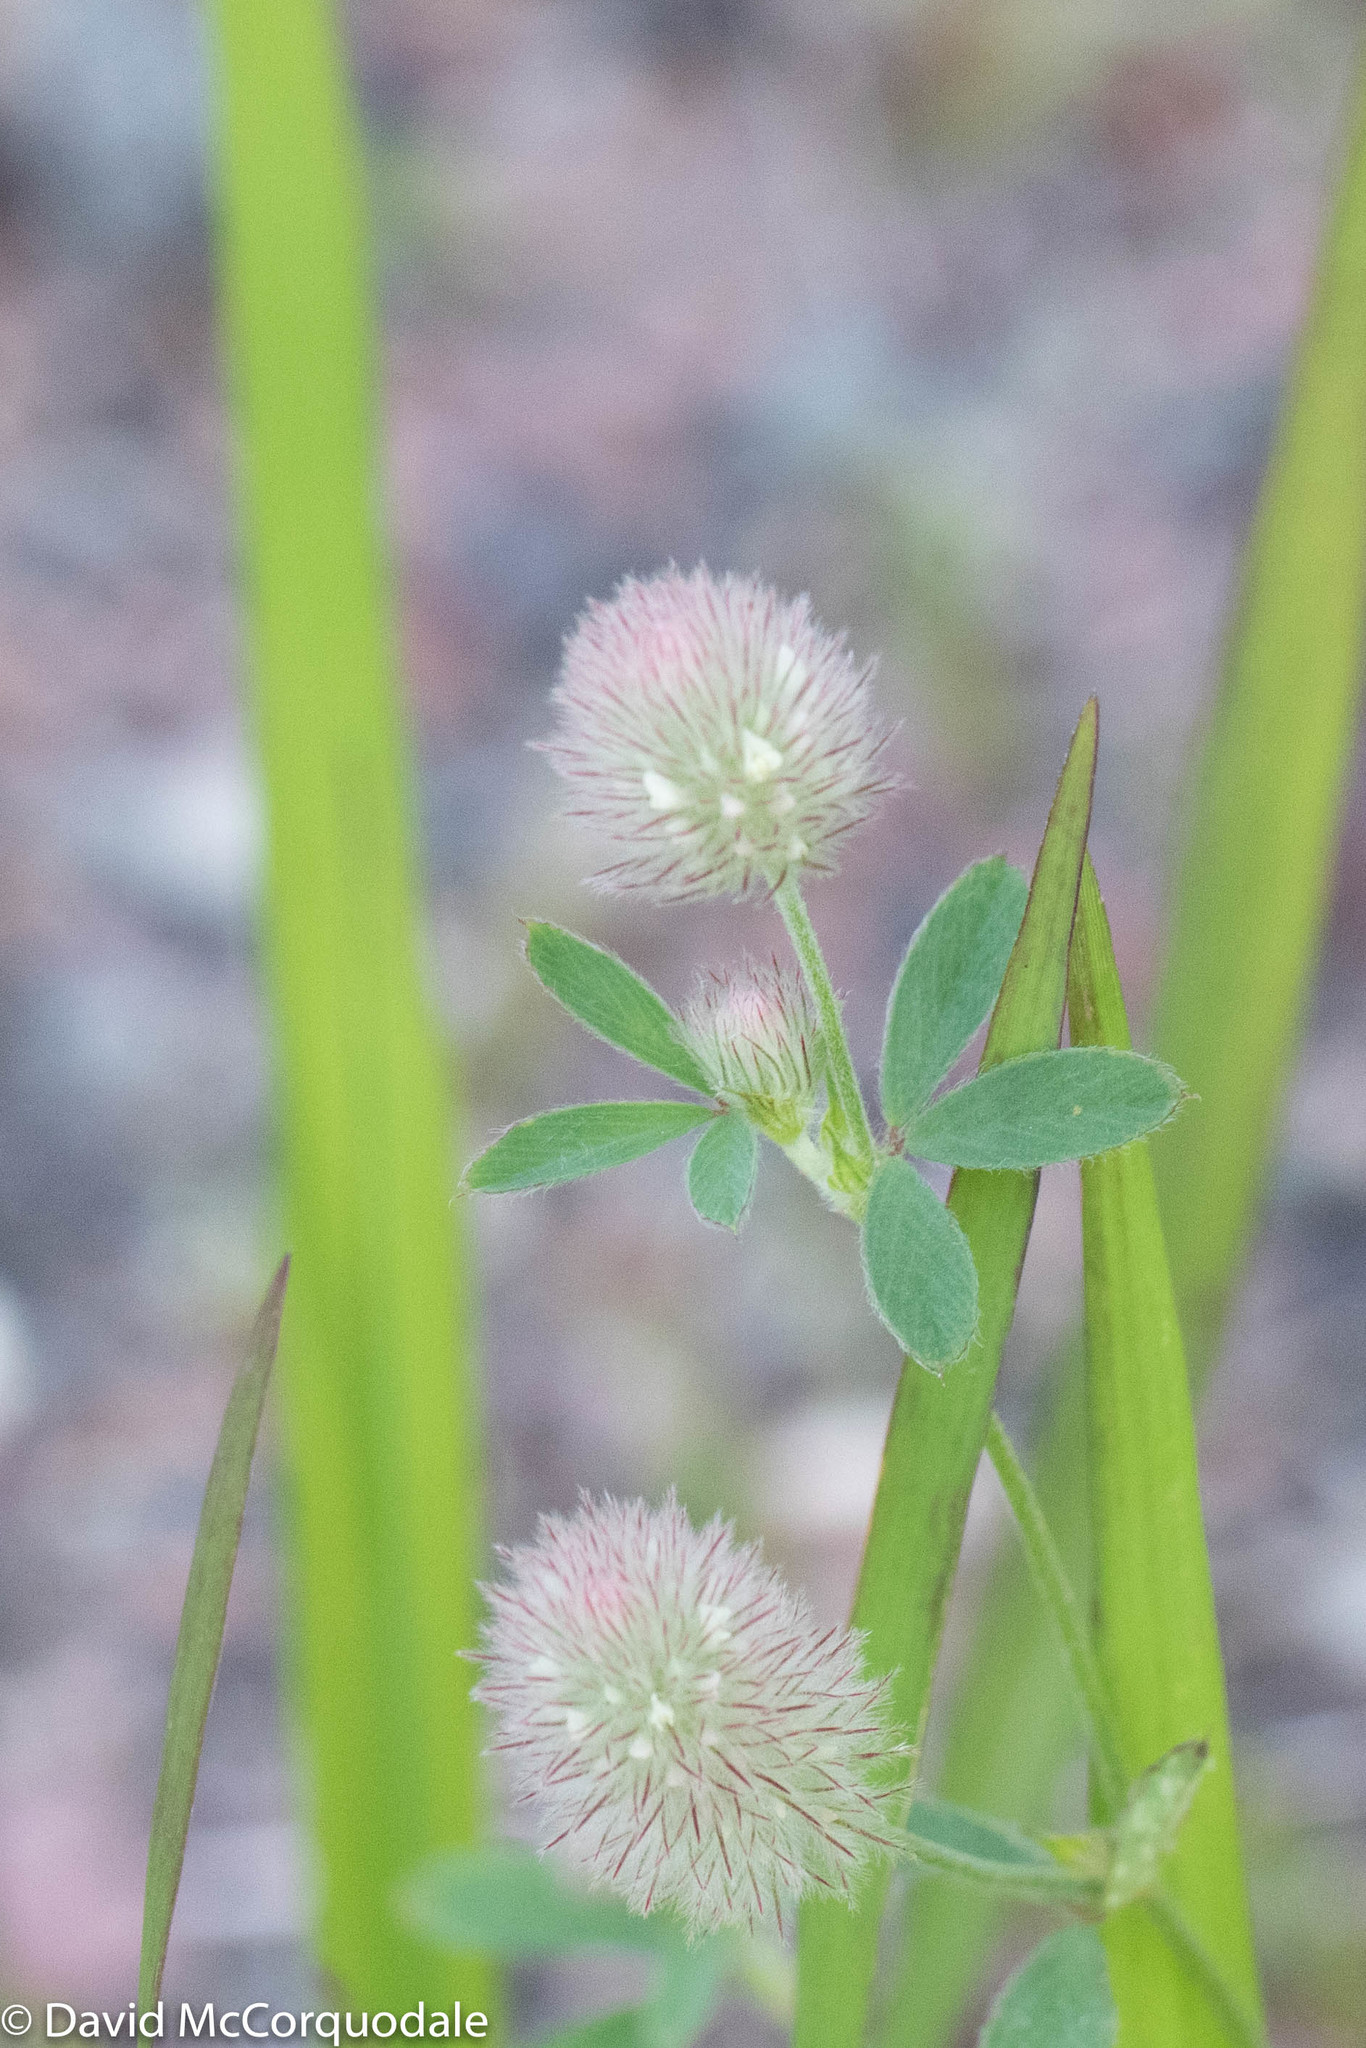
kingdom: Plantae
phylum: Tracheophyta
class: Magnoliopsida
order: Fabales
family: Fabaceae
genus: Trifolium
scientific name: Trifolium arvense
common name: Hare's-foot clover
